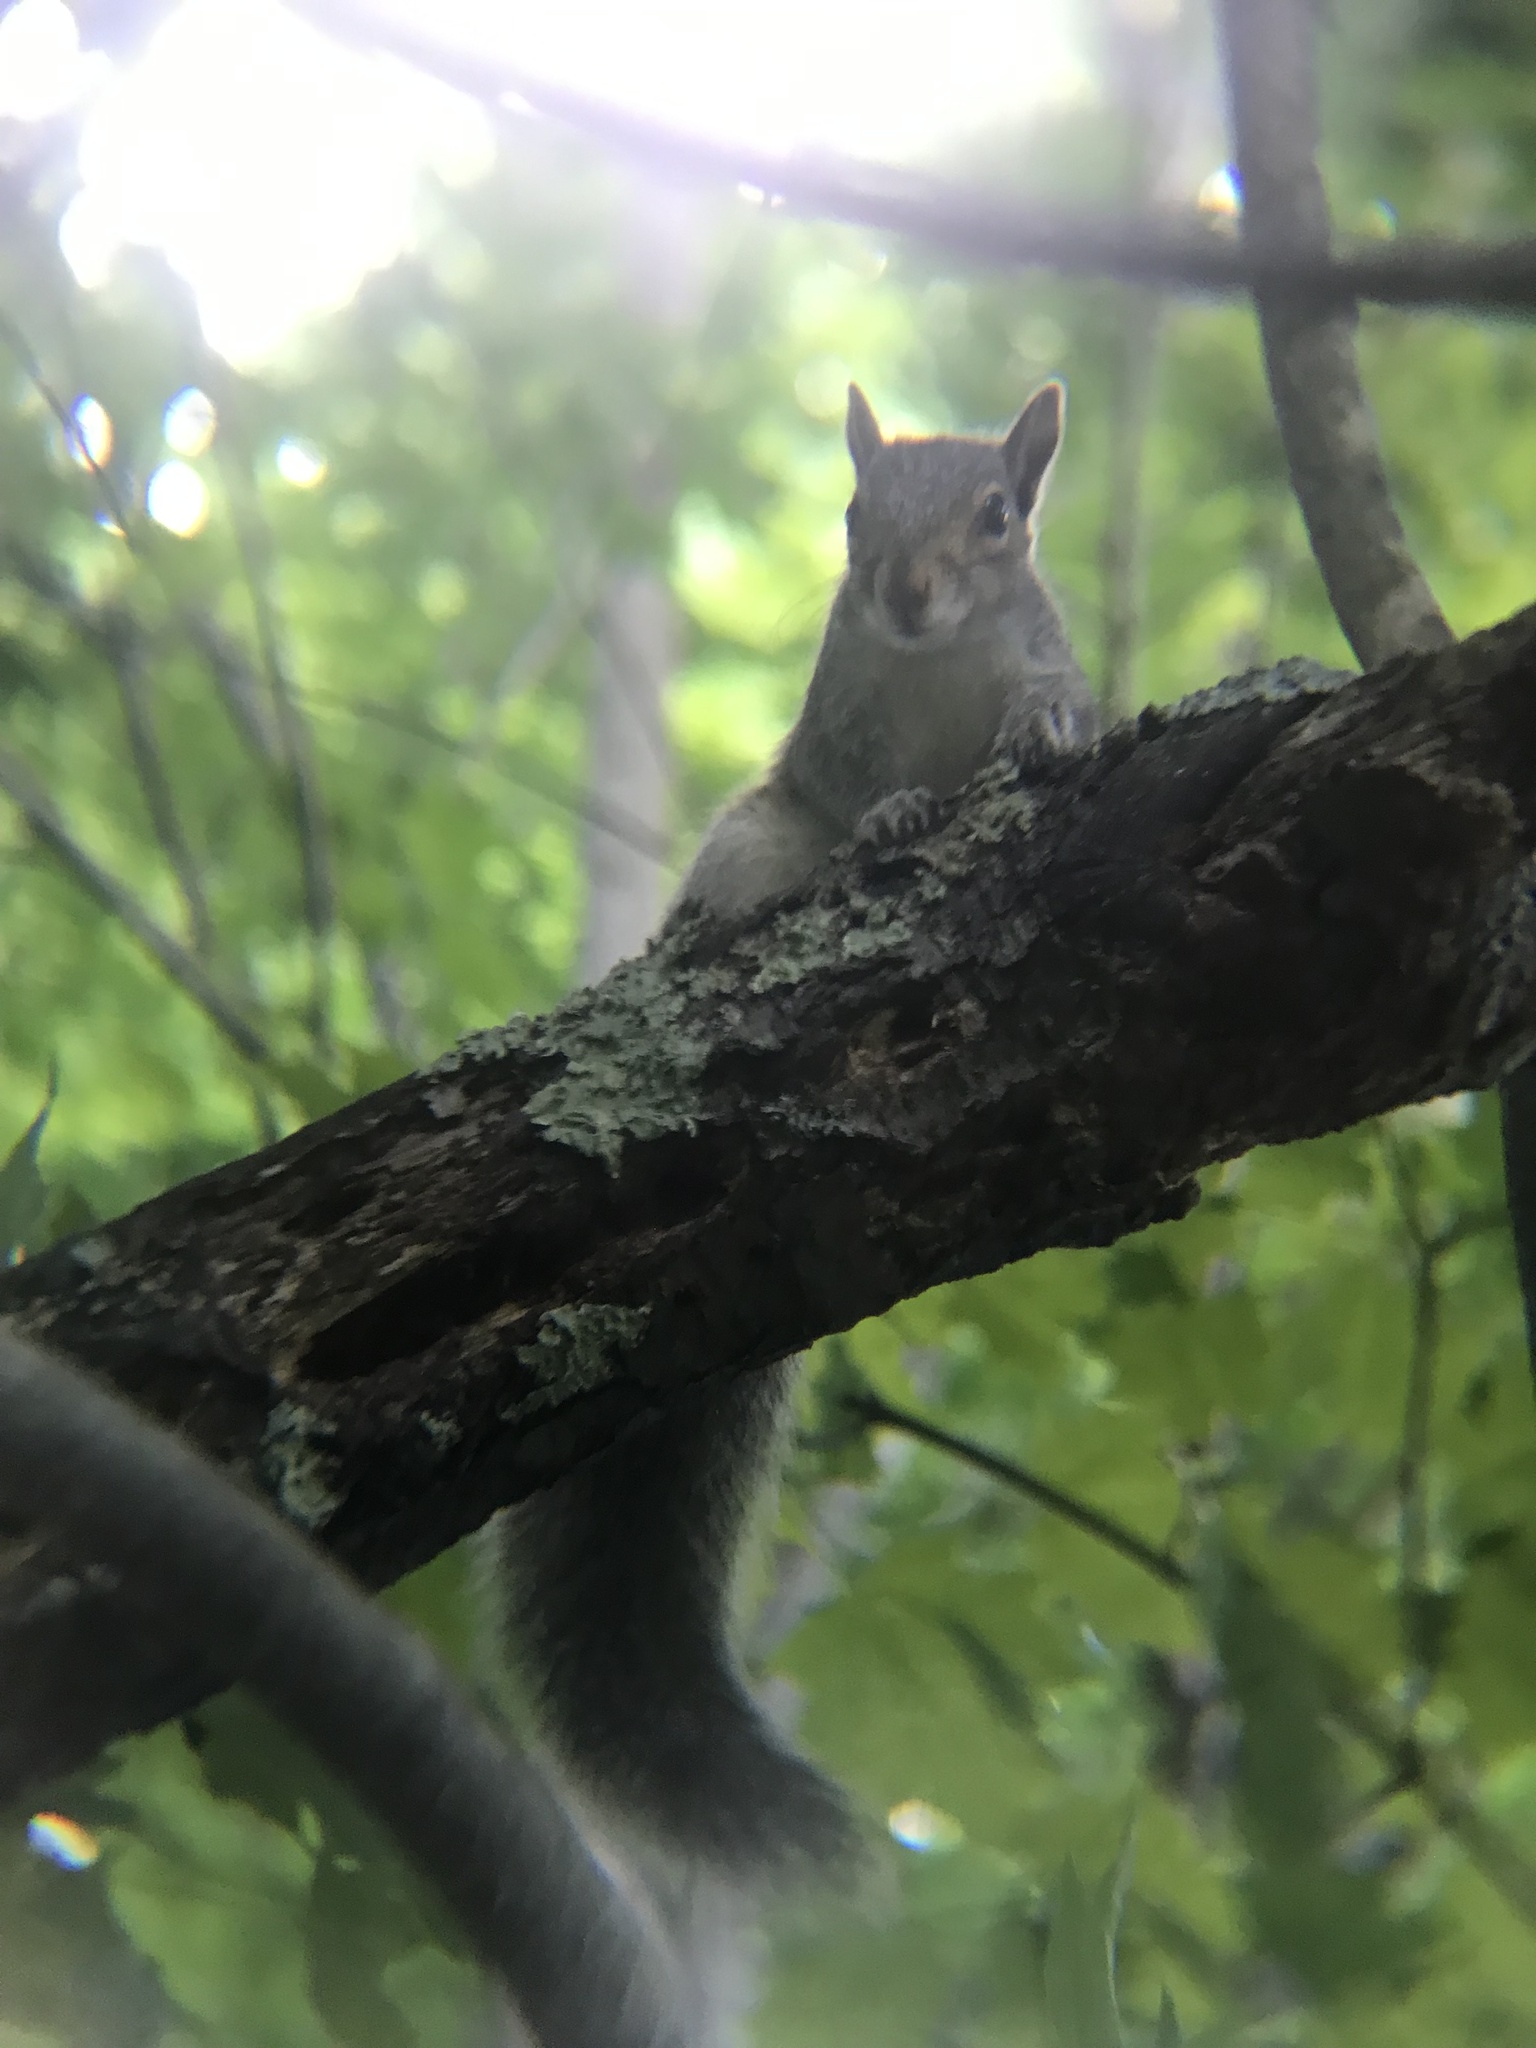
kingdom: Animalia
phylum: Chordata
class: Mammalia
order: Rodentia
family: Sciuridae
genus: Sciurus
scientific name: Sciurus carolinensis
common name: Eastern gray squirrel
